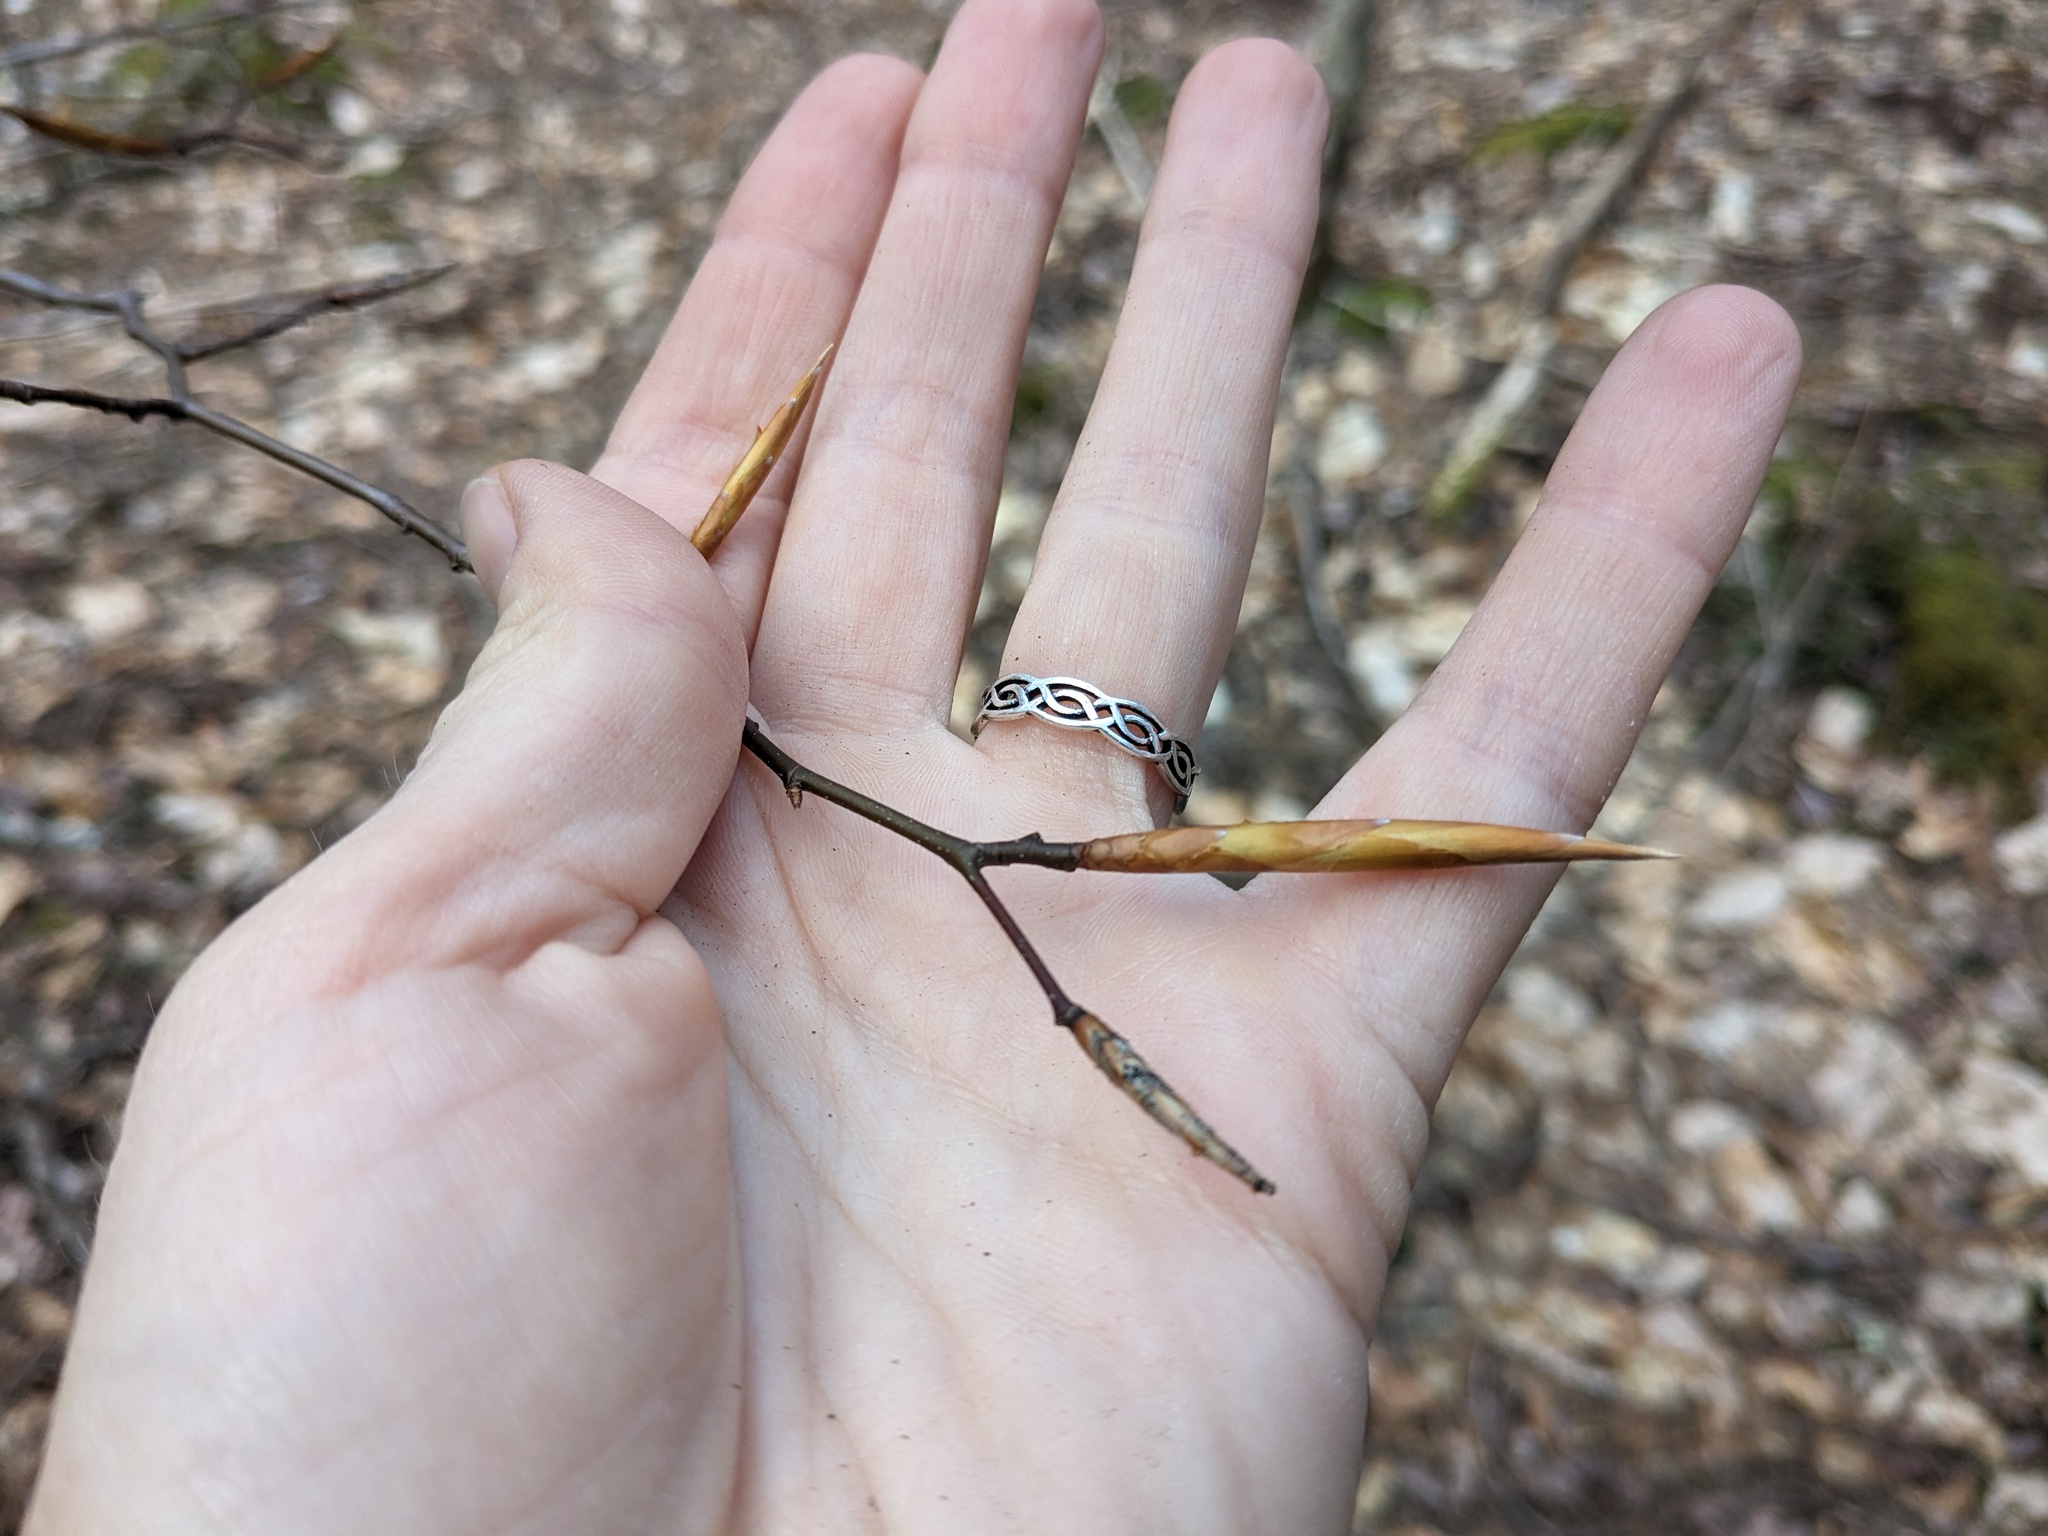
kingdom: Plantae
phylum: Tracheophyta
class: Magnoliopsida
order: Fagales
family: Fagaceae
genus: Fagus
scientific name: Fagus grandifolia
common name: American beech
